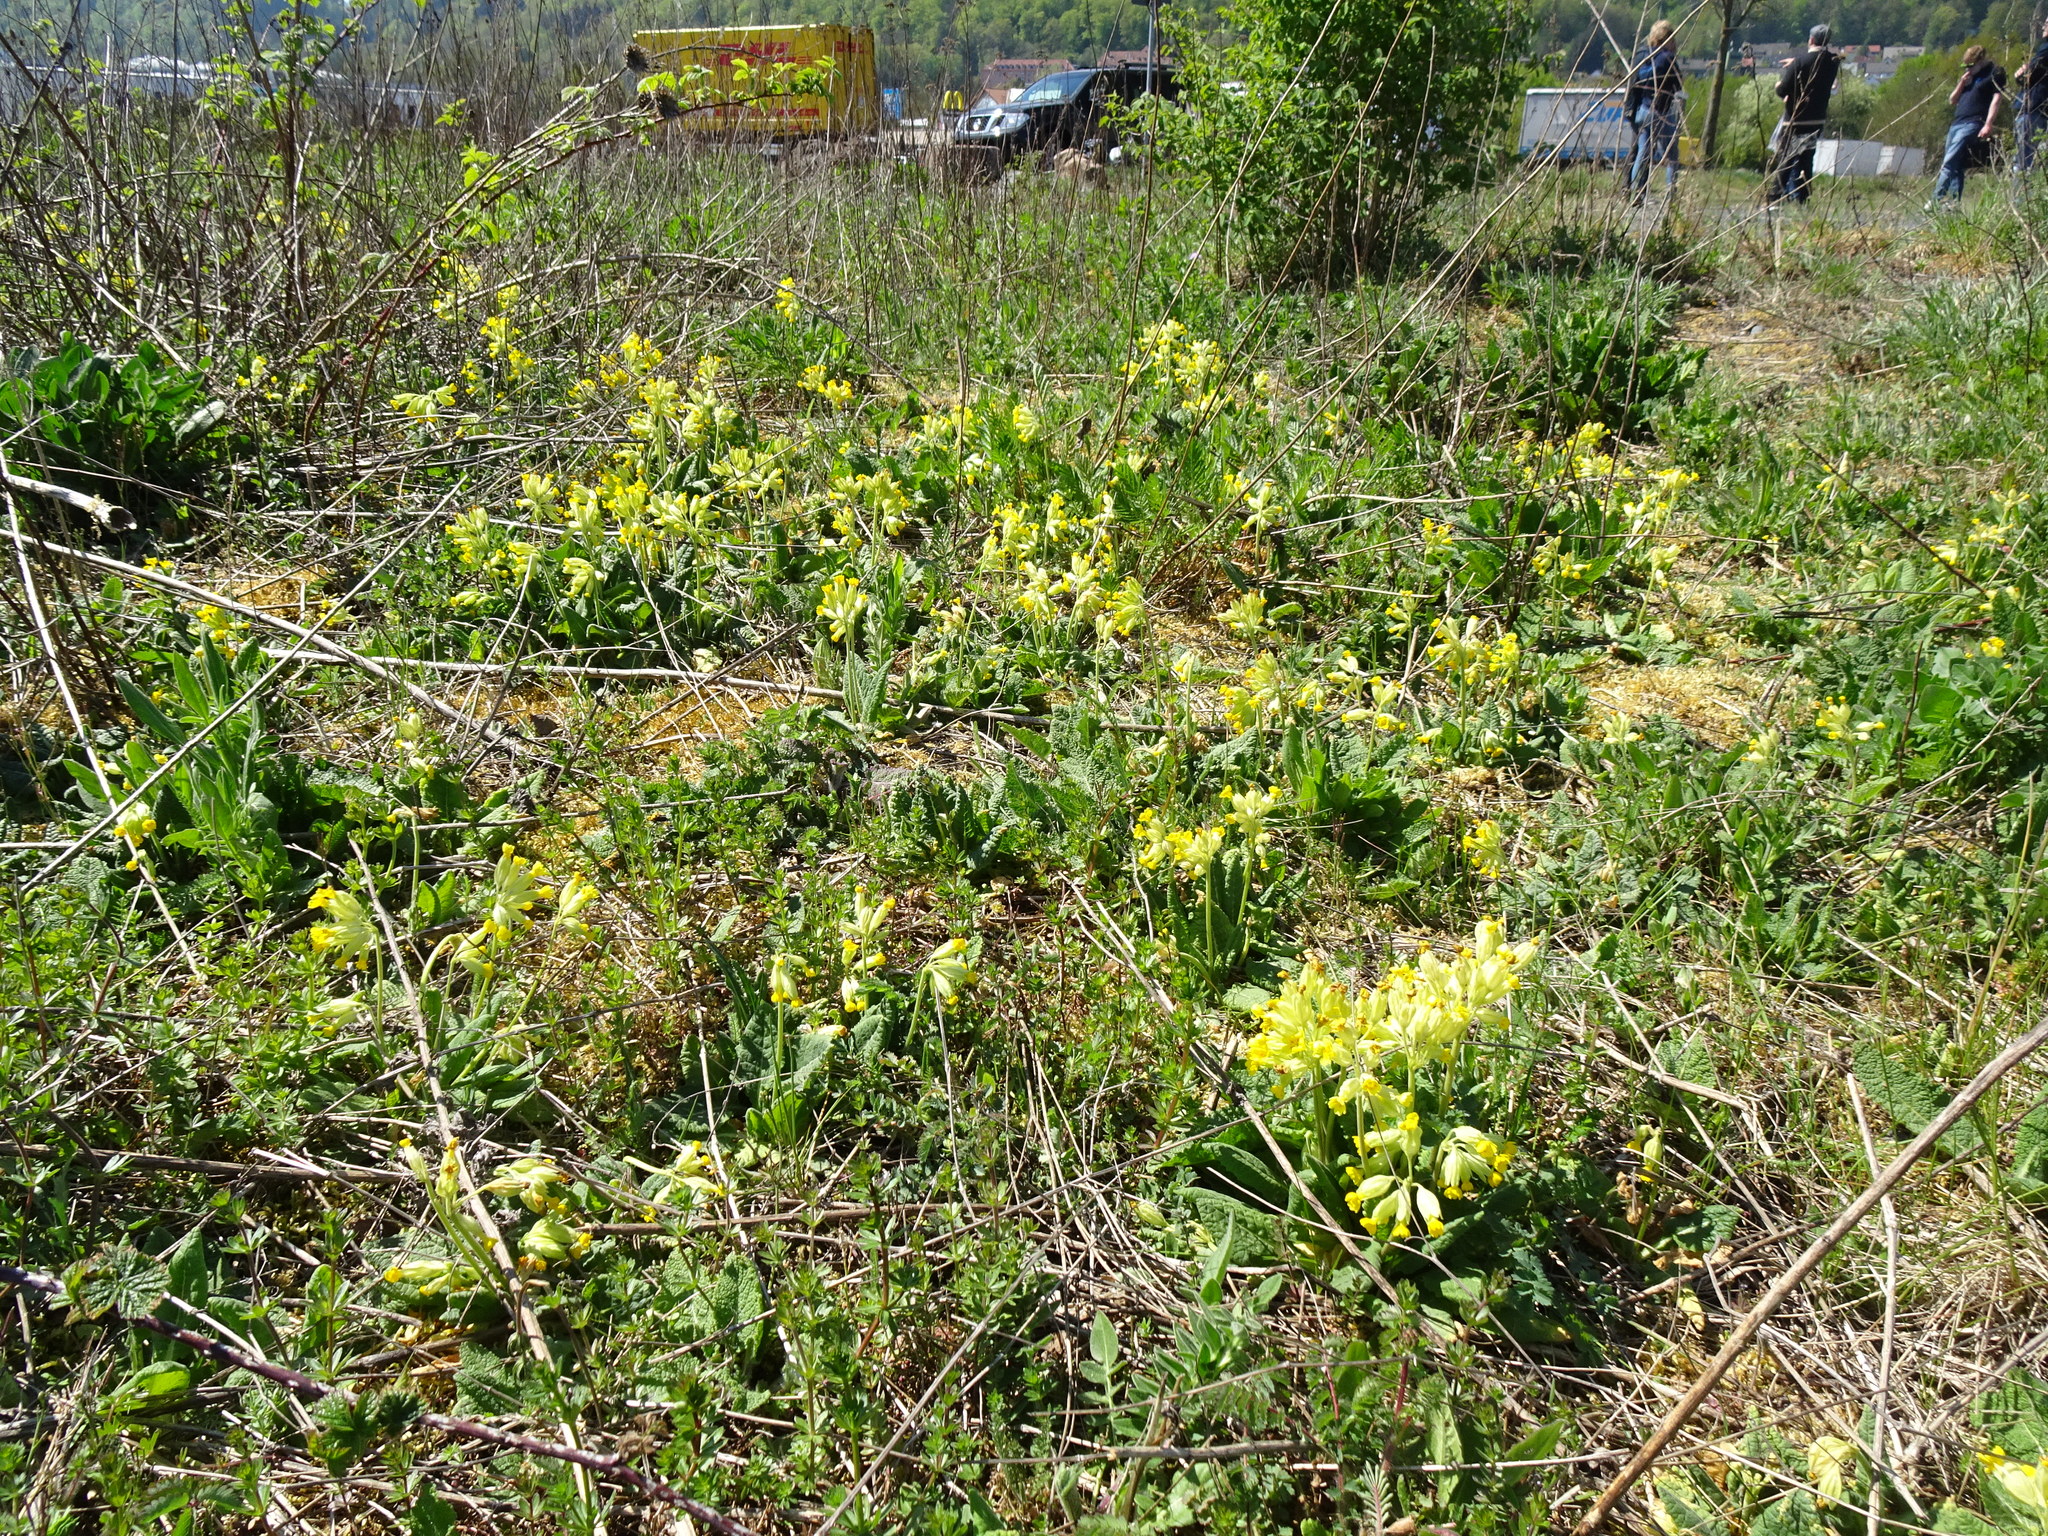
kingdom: Plantae
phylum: Tracheophyta
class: Magnoliopsida
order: Ericales
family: Primulaceae
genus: Primula
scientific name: Primula veris
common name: Cowslip
